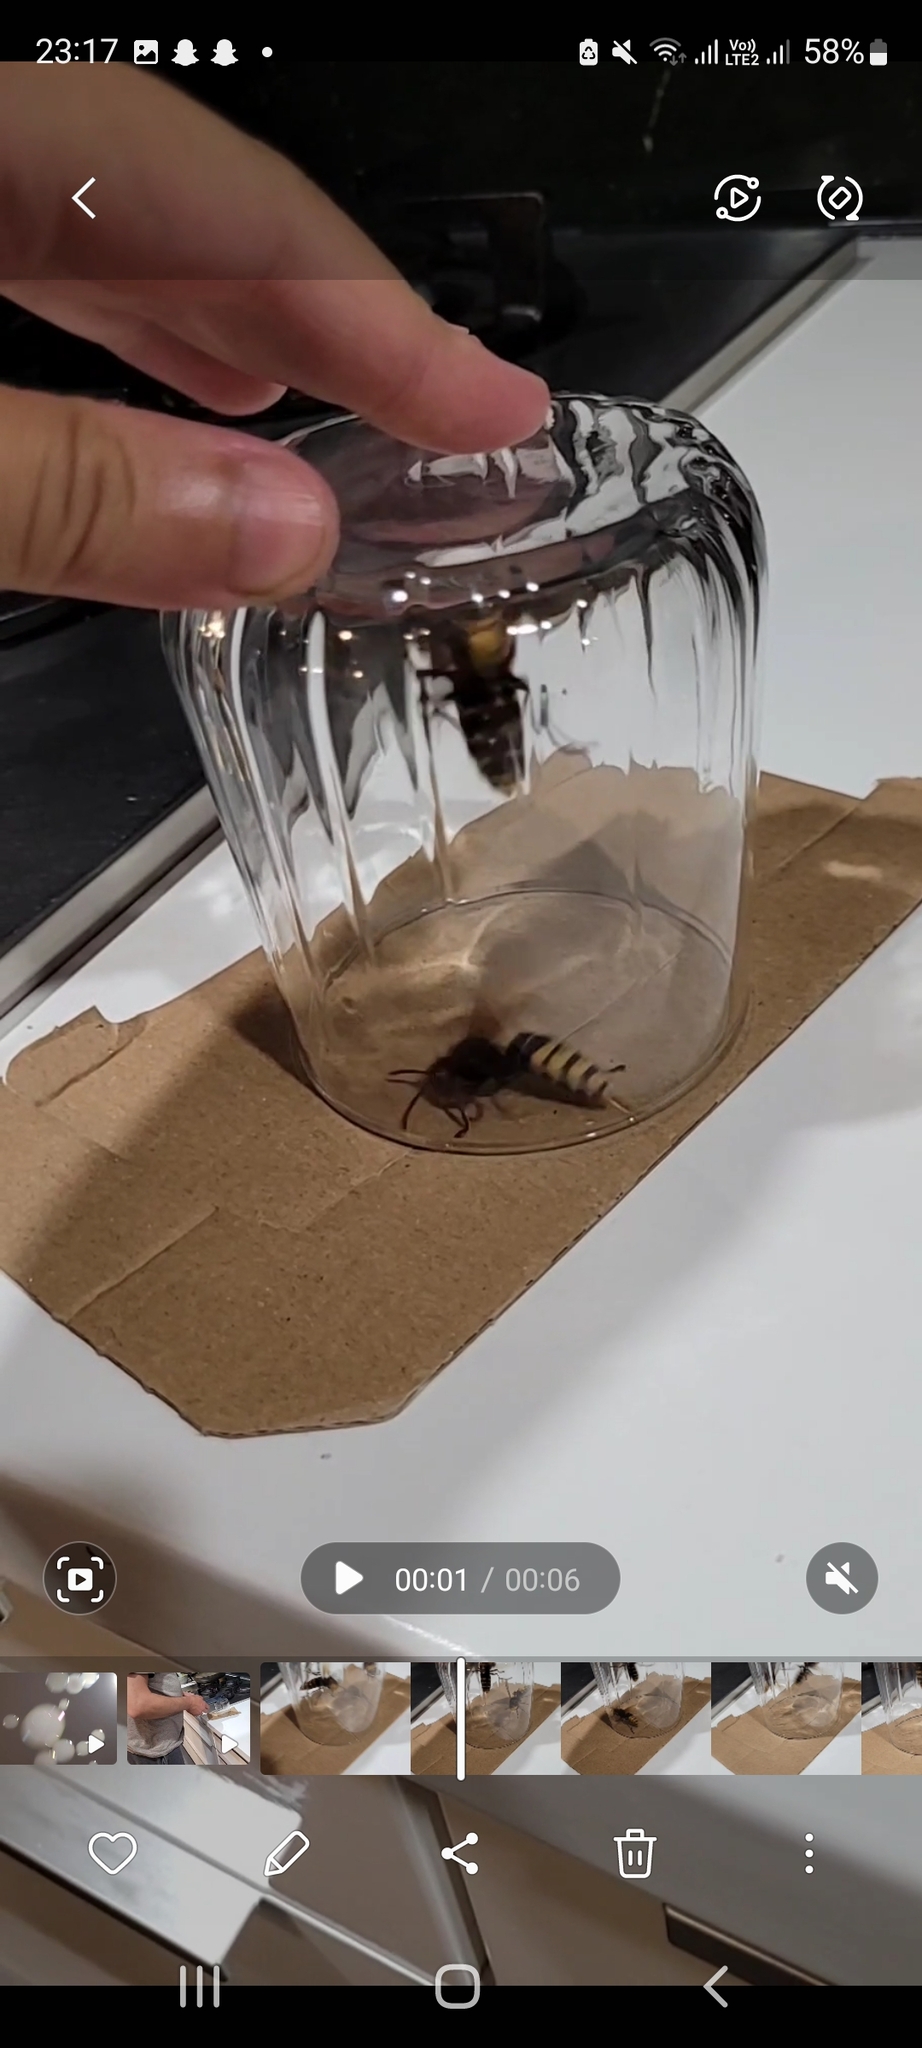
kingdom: Animalia
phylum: Arthropoda
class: Insecta
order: Hymenoptera
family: Vespidae
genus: Vespa
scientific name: Vespa crabro
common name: Hornet
